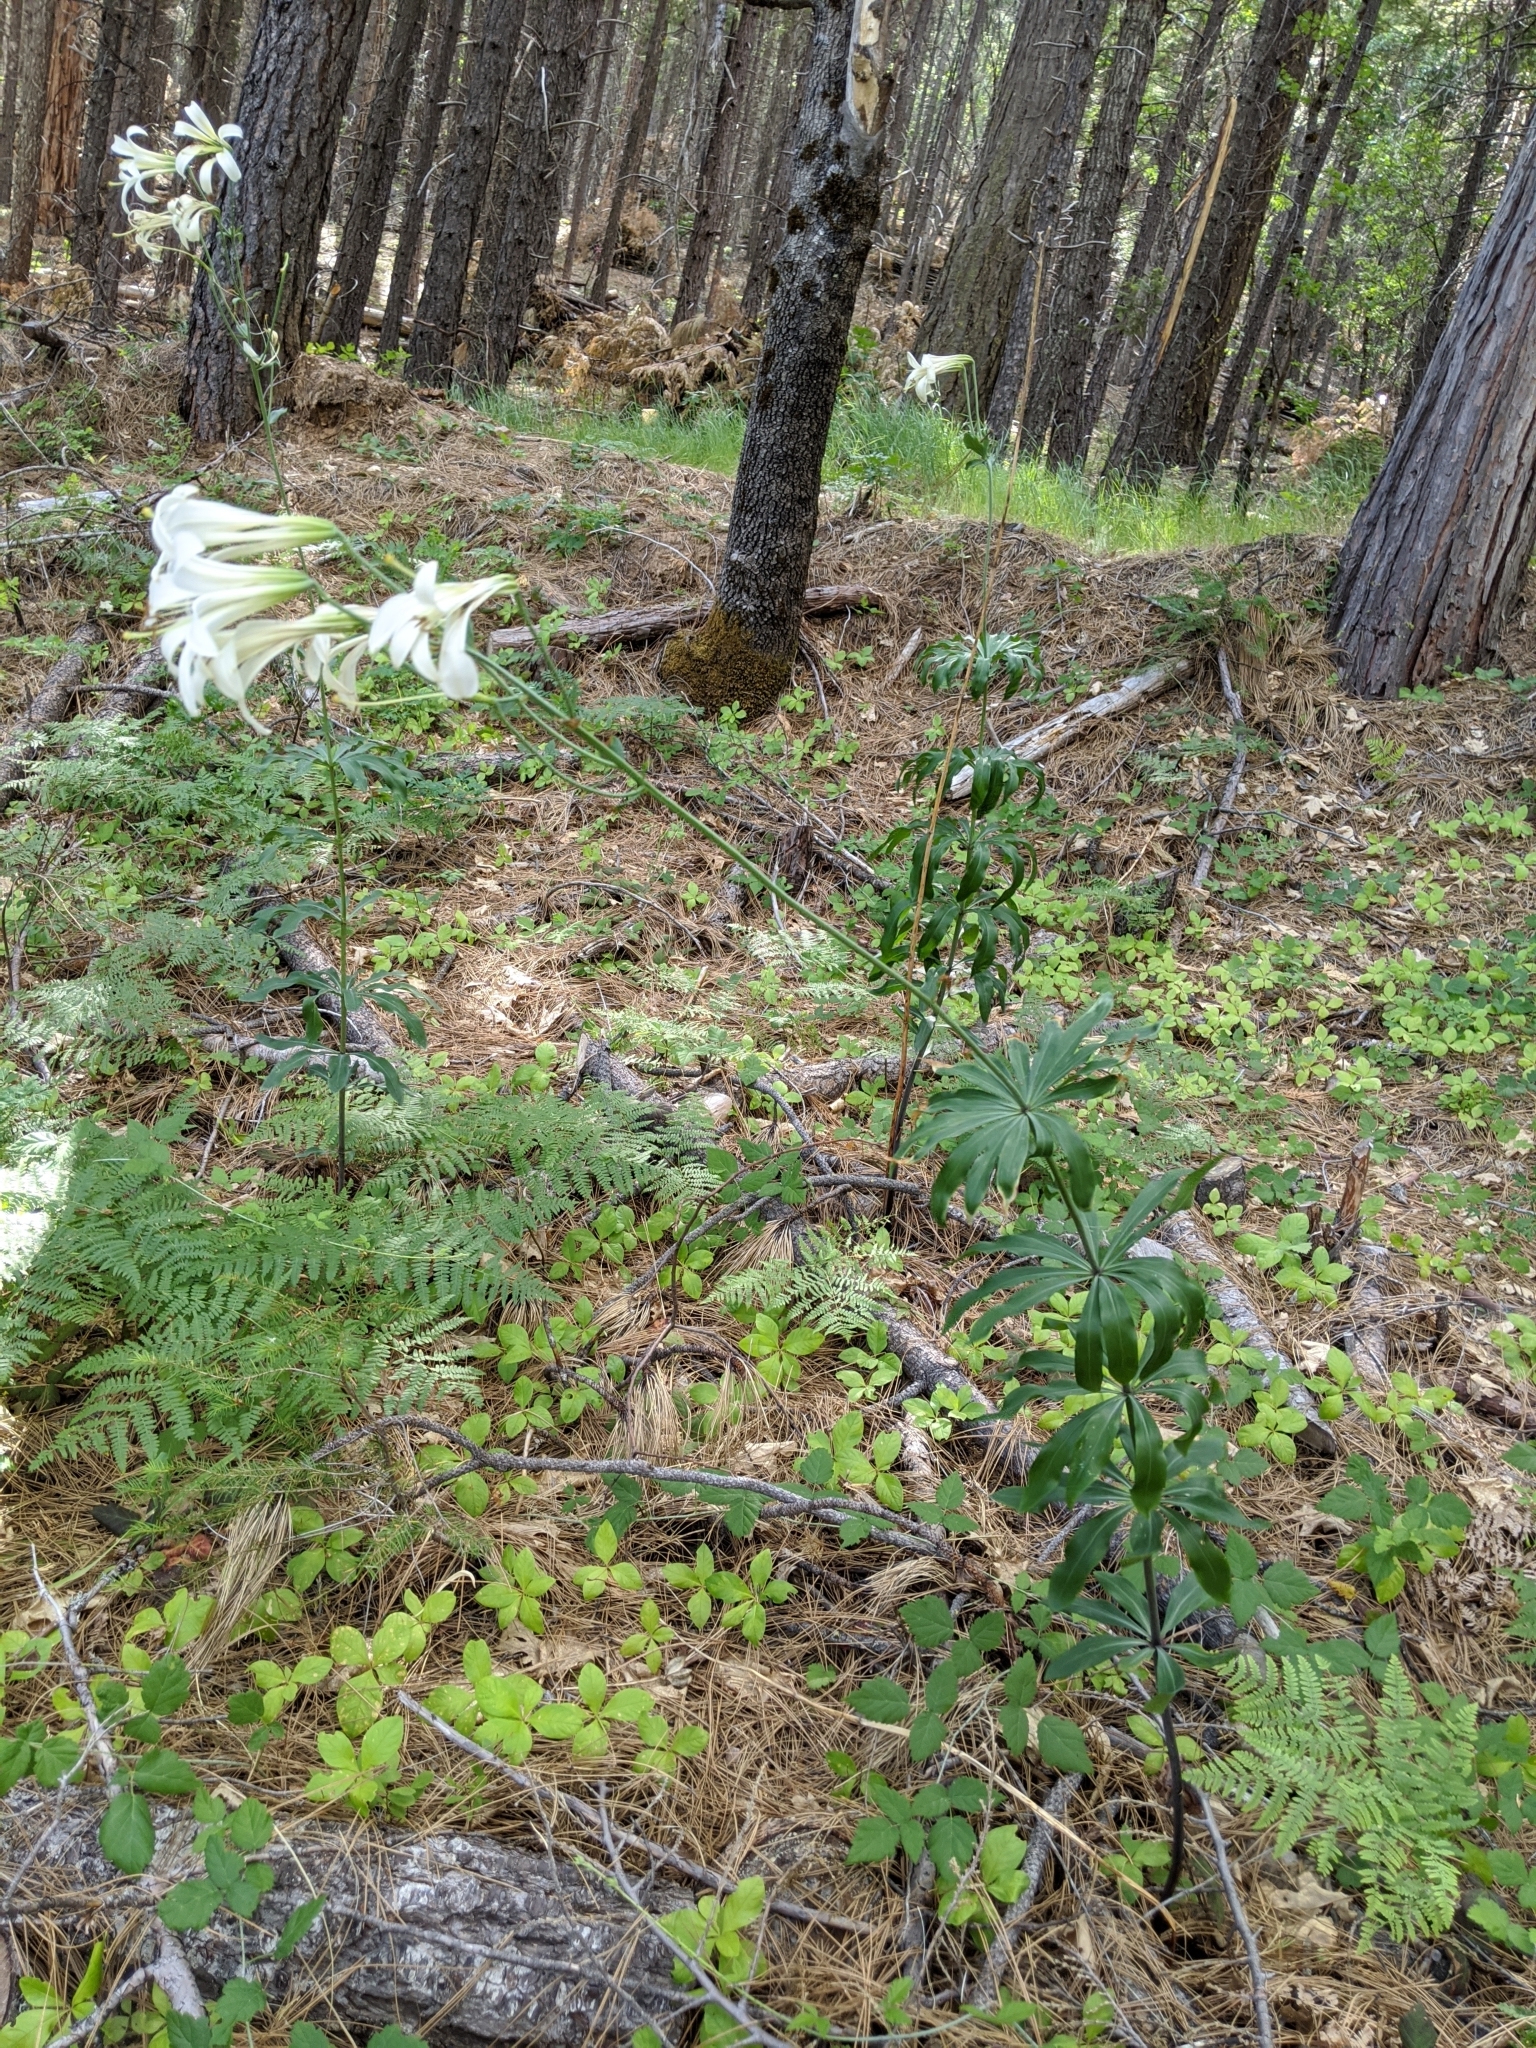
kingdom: Plantae
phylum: Tracheophyta
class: Liliopsida
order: Liliales
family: Liliaceae
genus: Lilium
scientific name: Lilium washingtonianum
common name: Washington lily
